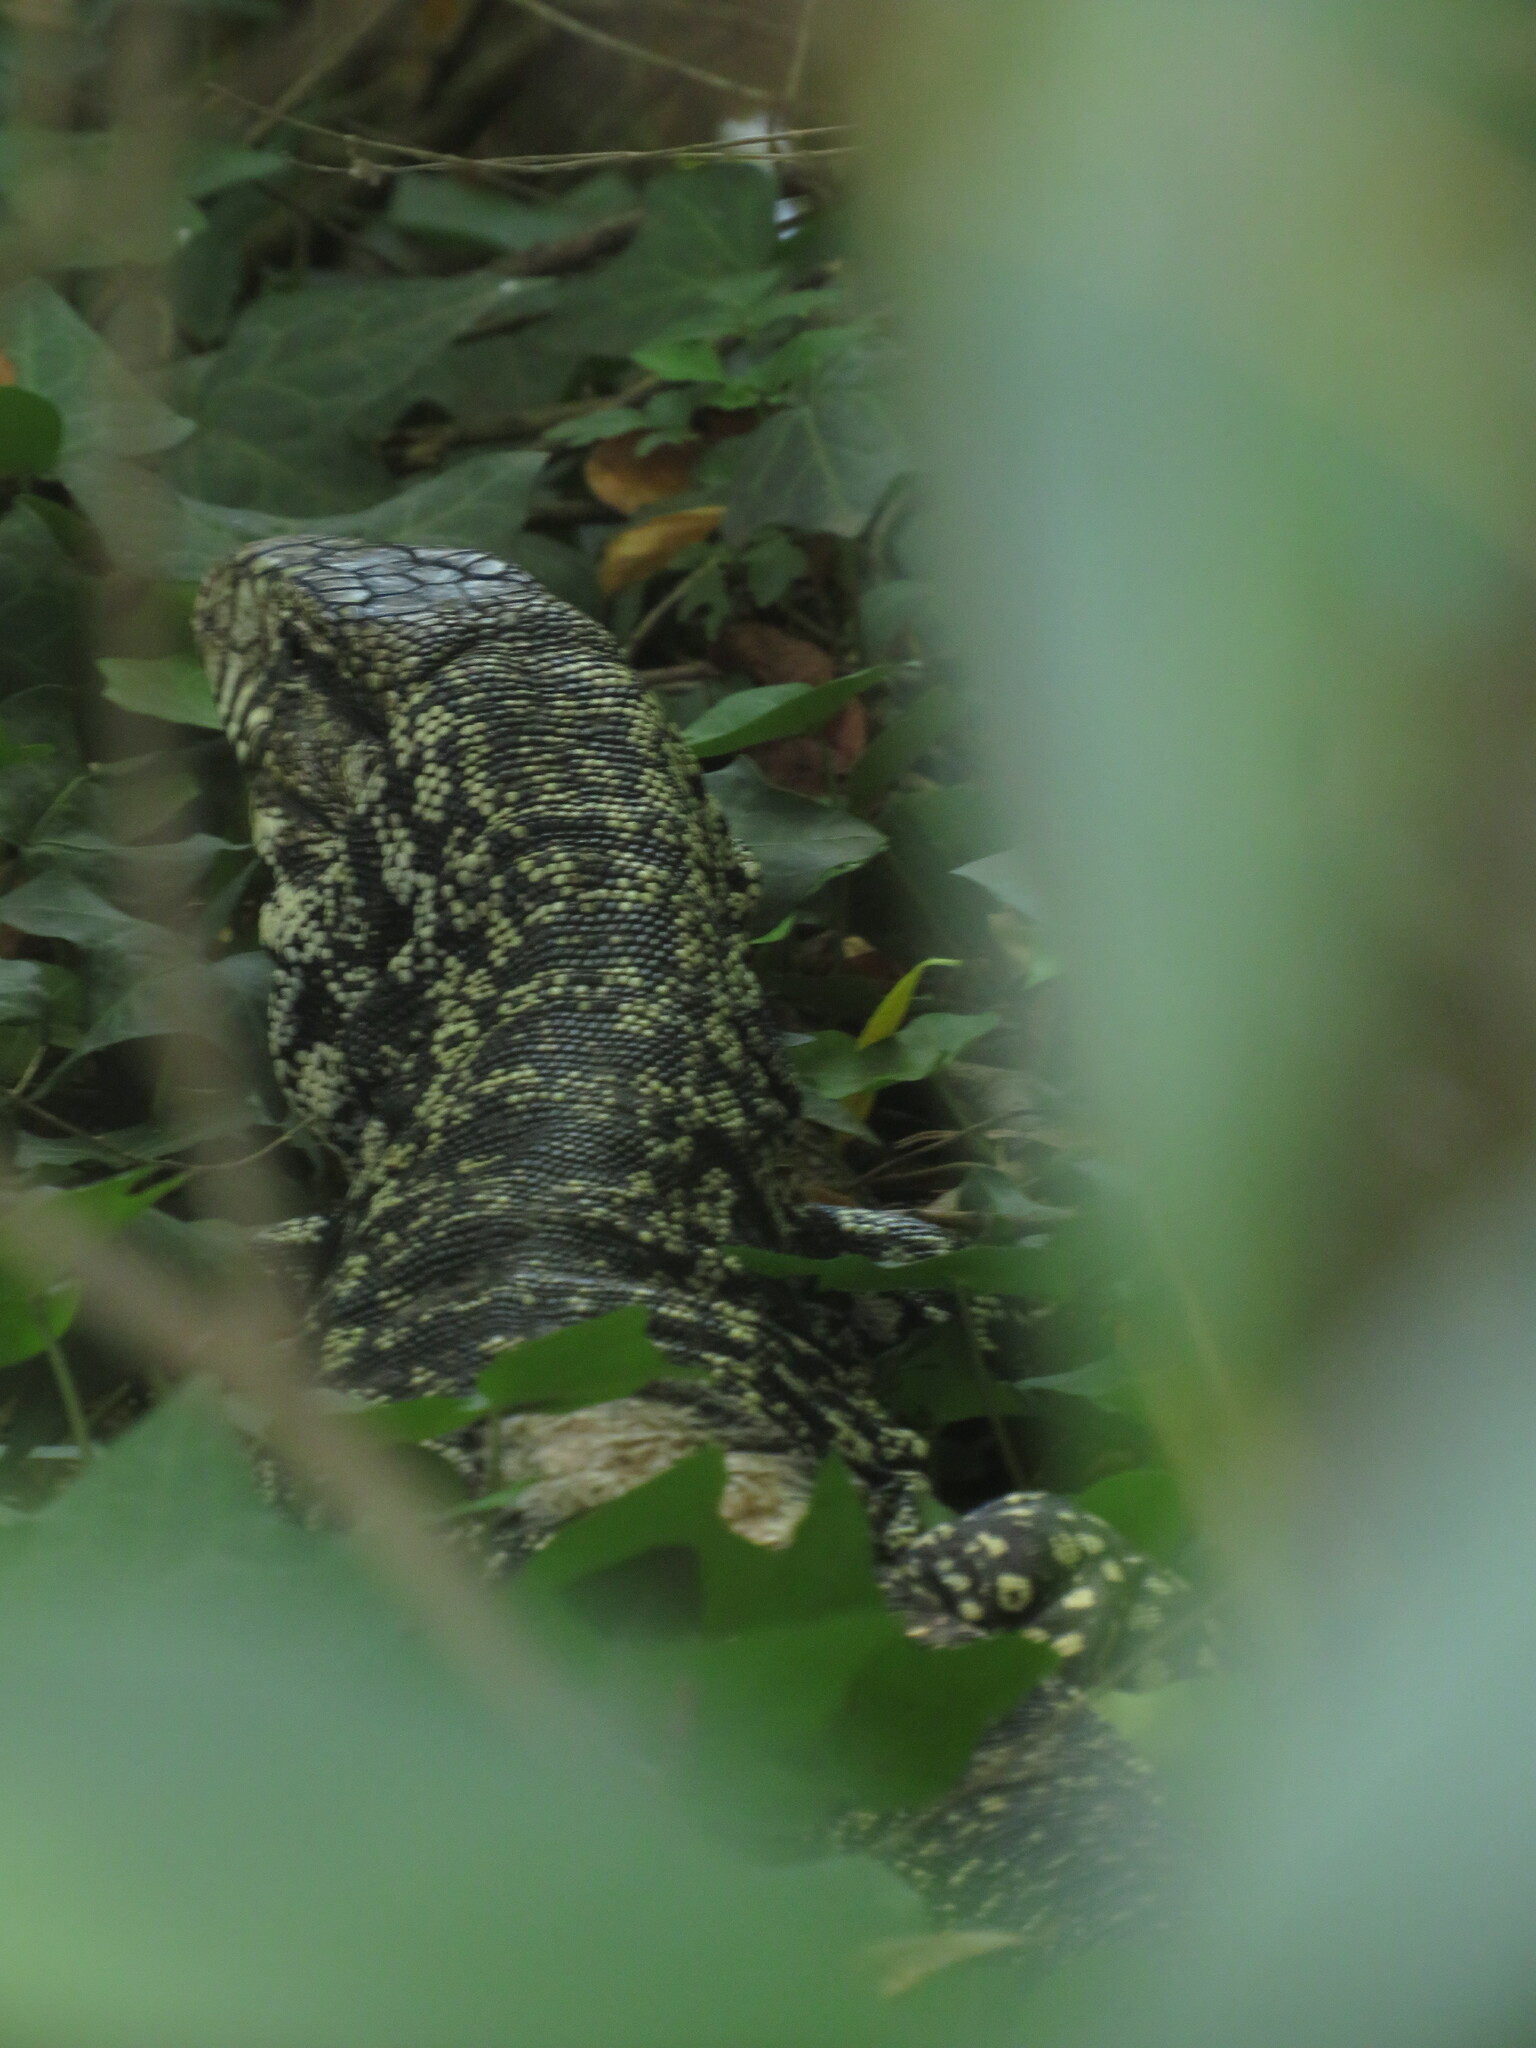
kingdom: Animalia
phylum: Chordata
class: Squamata
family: Teiidae
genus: Salvator
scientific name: Salvator merianae
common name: Argentine black and white tegu
